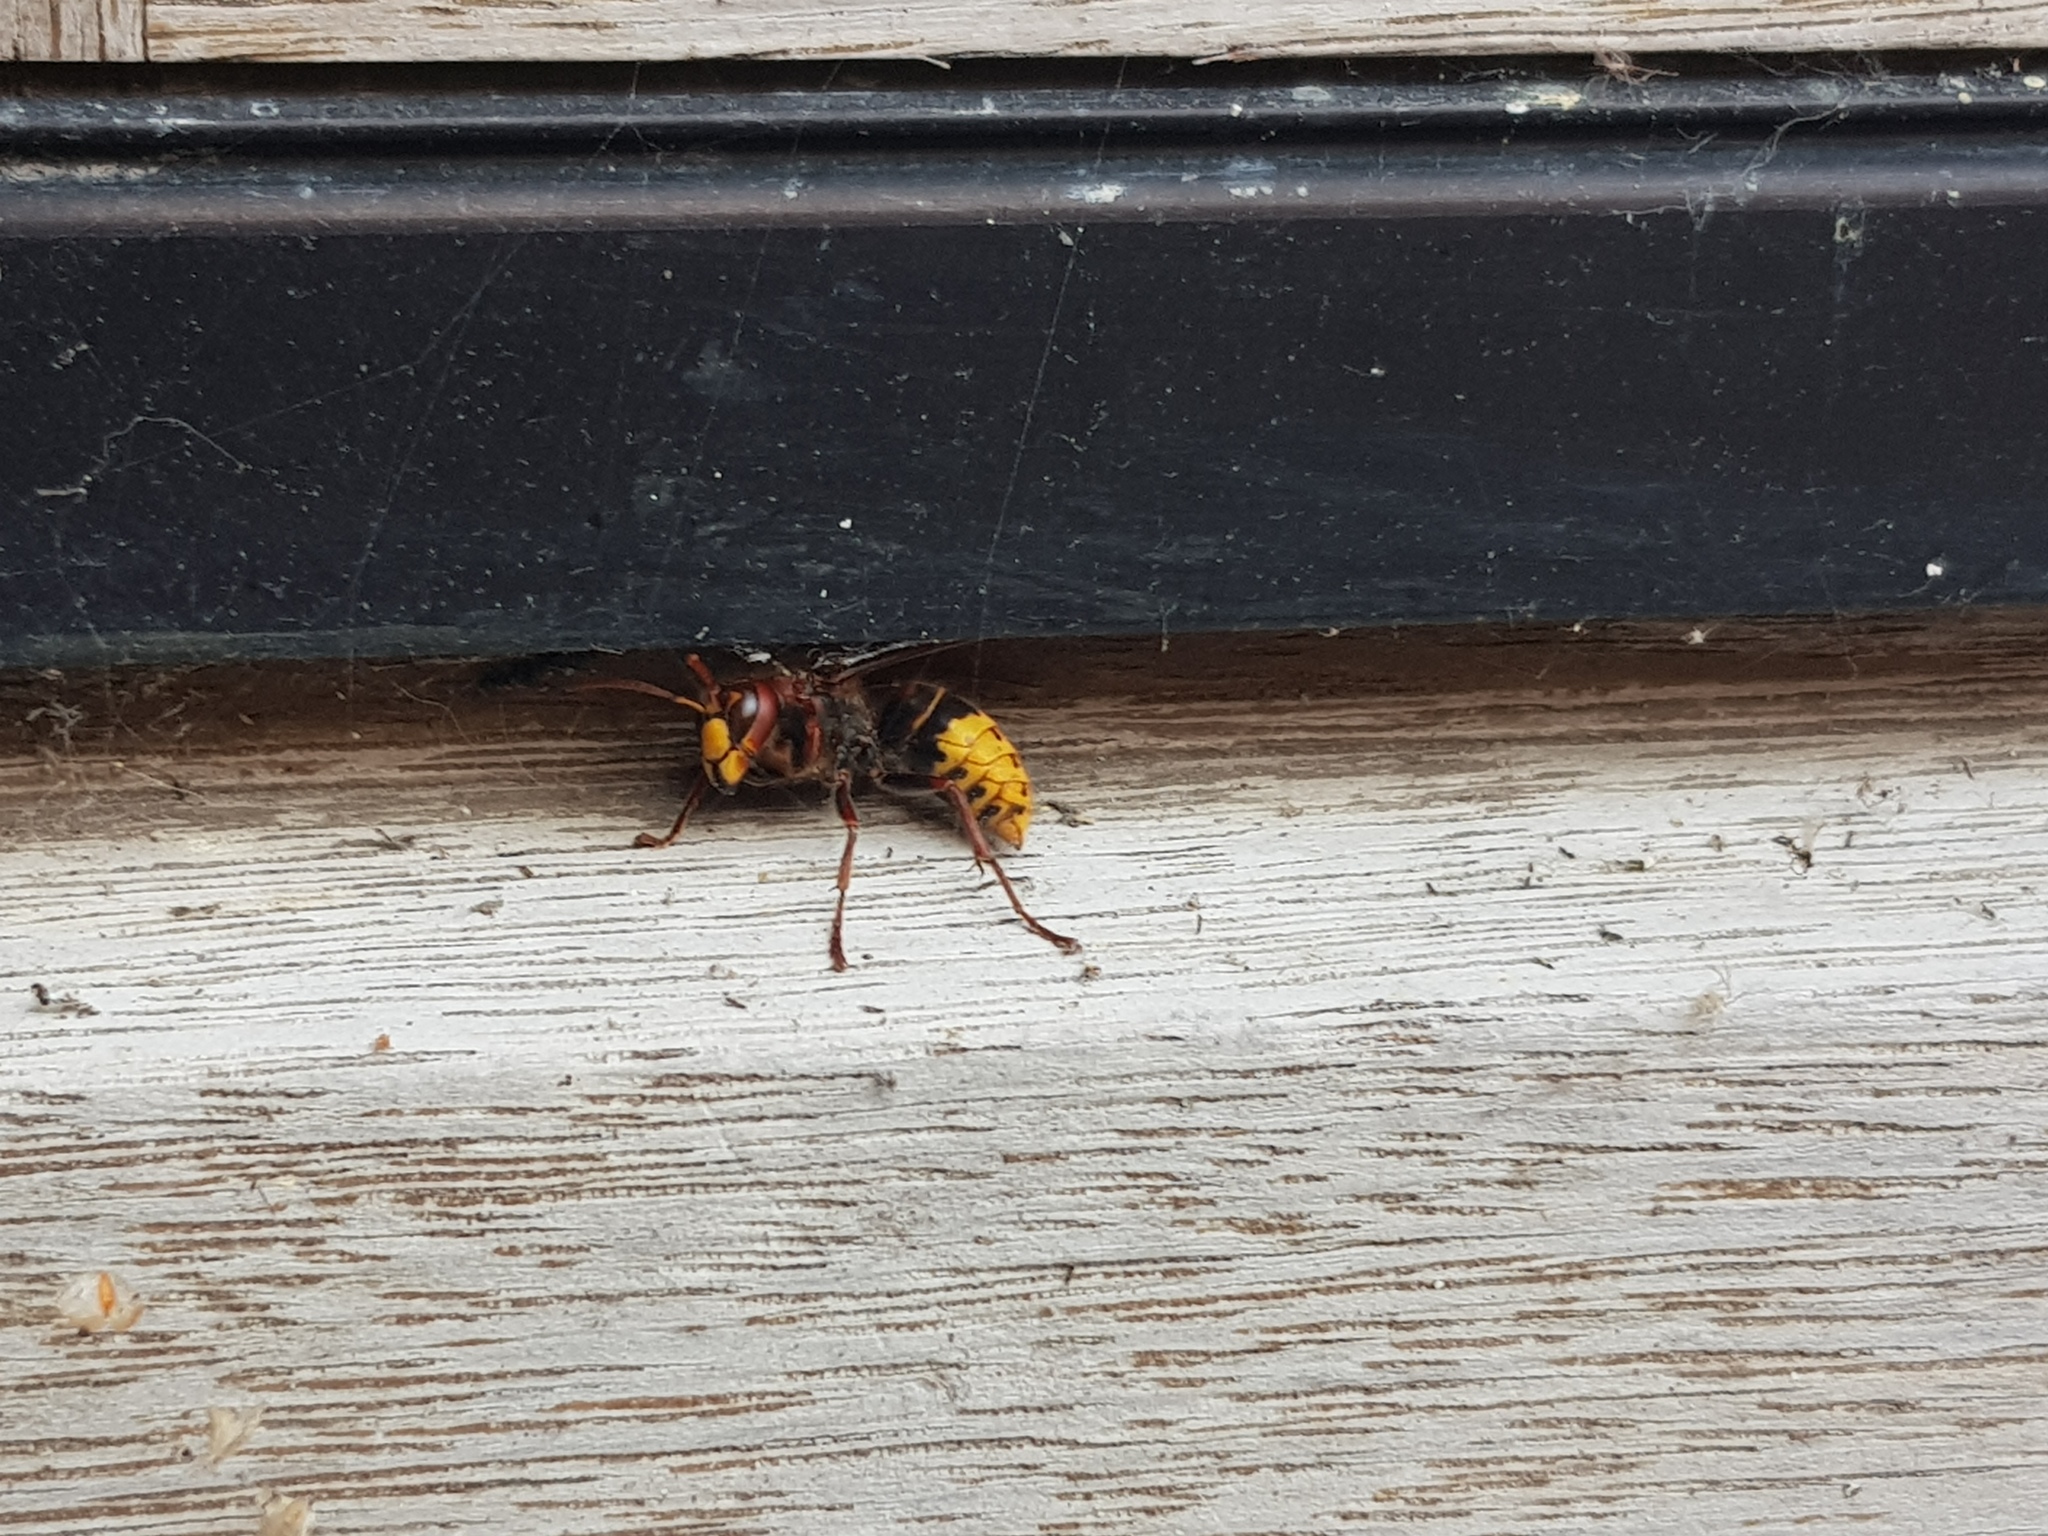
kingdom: Animalia
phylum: Arthropoda
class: Insecta
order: Hymenoptera
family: Vespidae
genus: Vespa
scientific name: Vespa crabro
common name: Hornet
